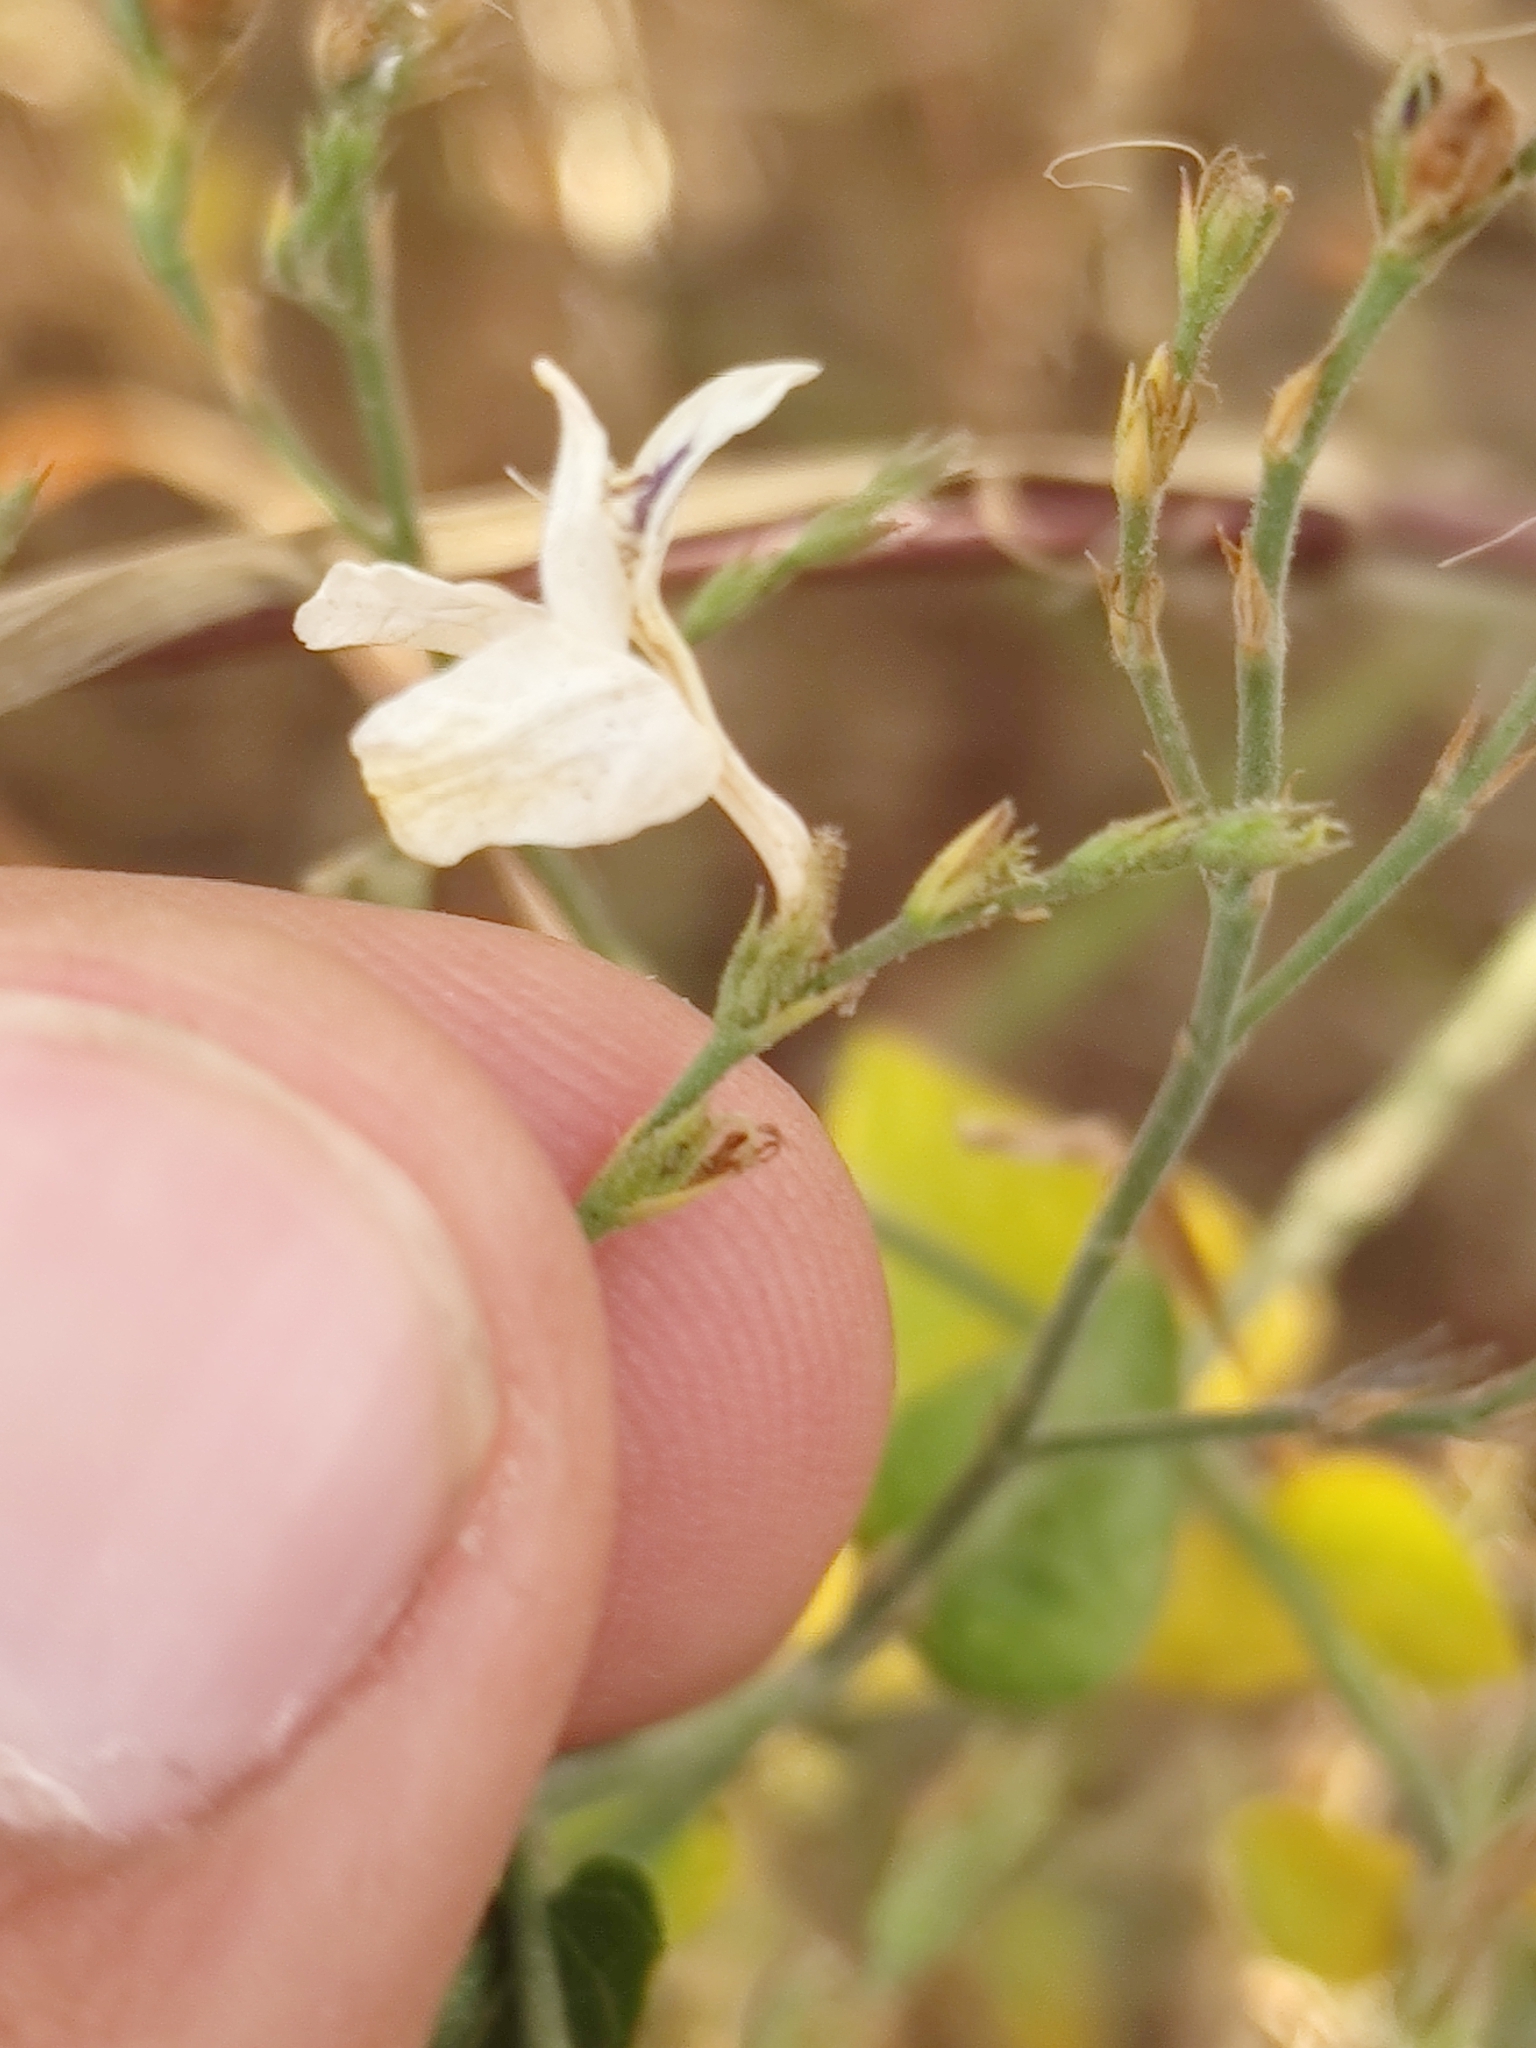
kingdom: Plantae
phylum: Tracheophyta
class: Magnoliopsida
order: Lamiales
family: Acanthaceae
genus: Carlowrightia
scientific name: Carlowrightia arizonica
